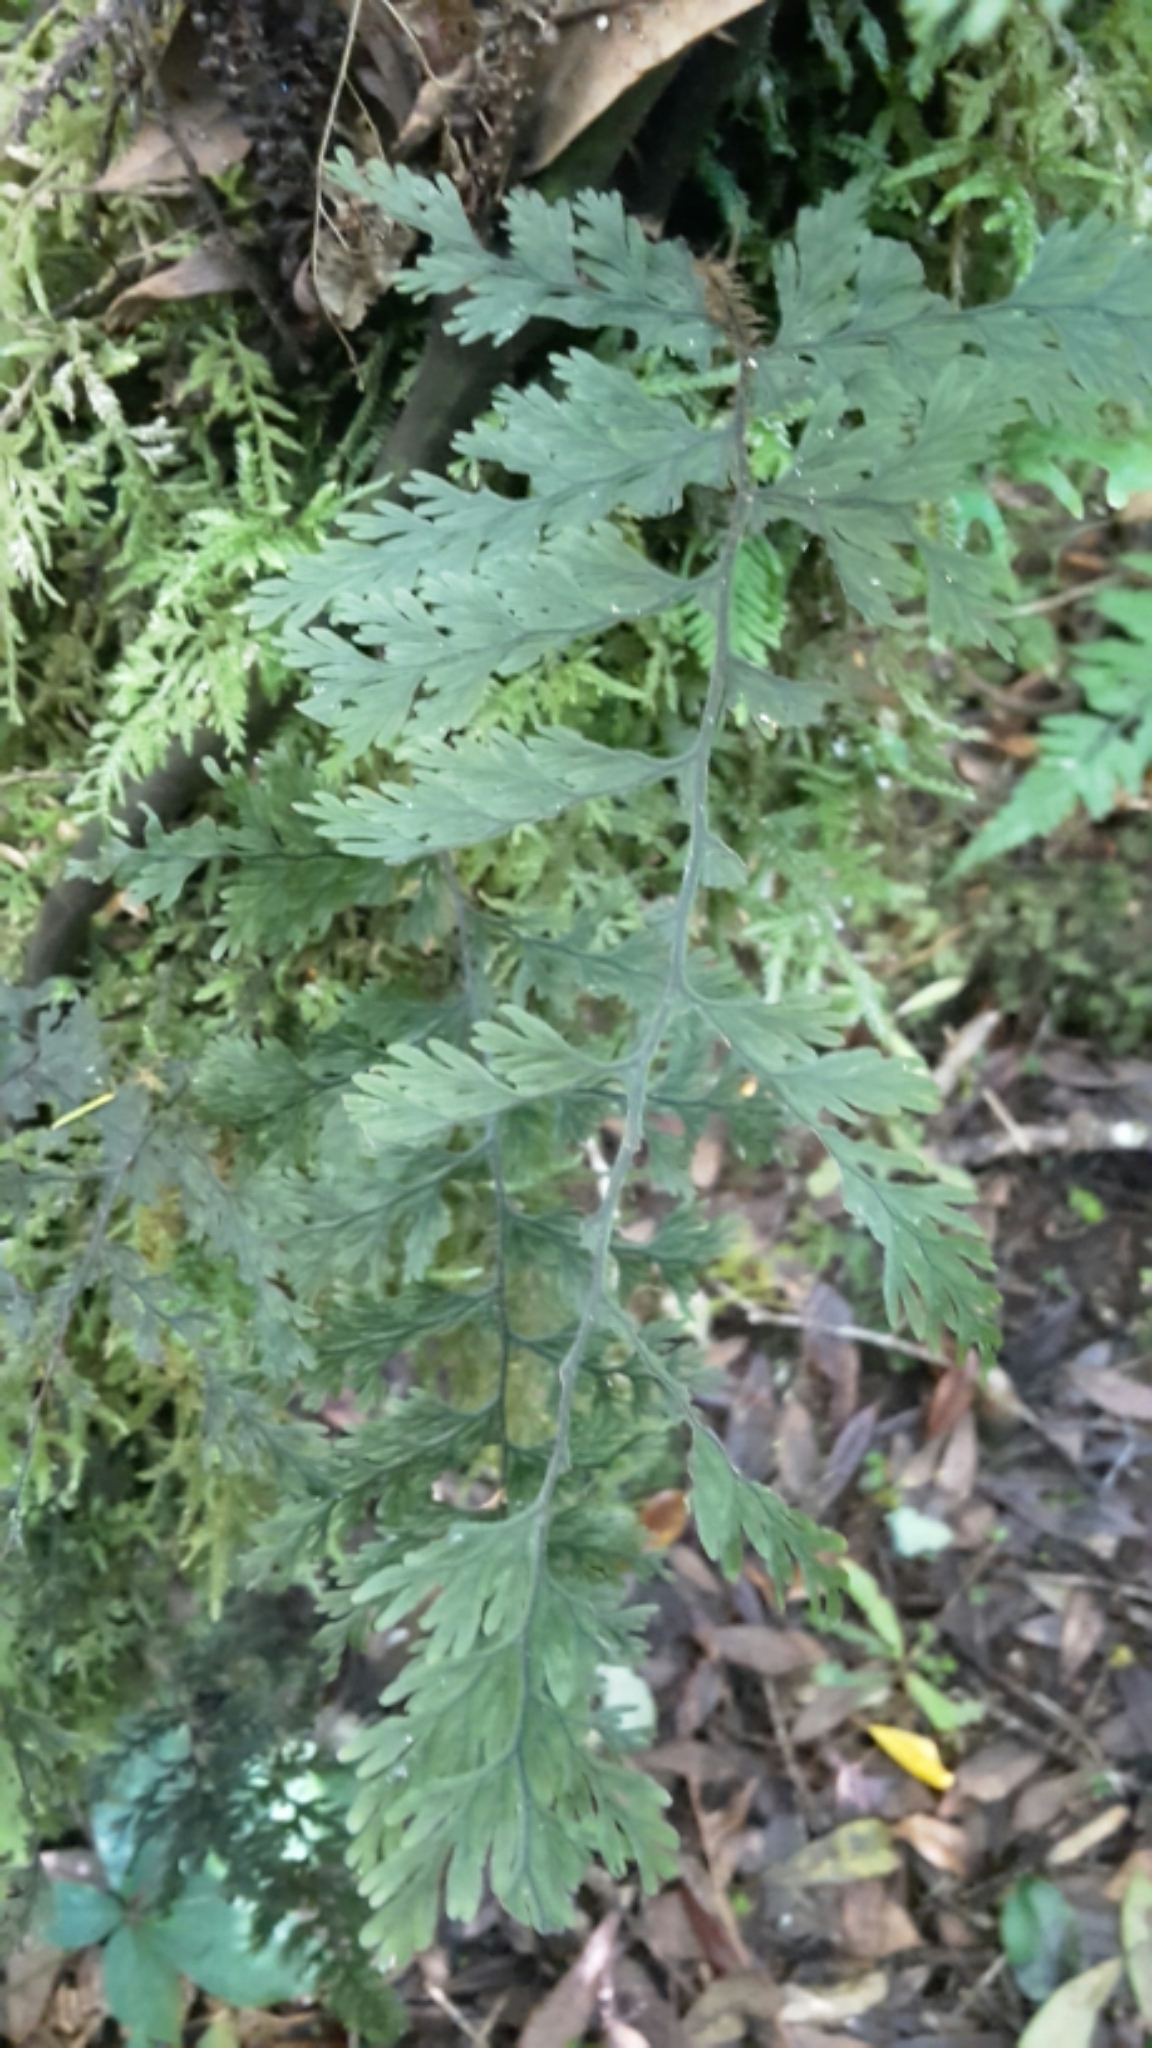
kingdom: Plantae
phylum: Tracheophyta
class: Polypodiopsida
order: Hymenophyllales
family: Hymenophyllaceae
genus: Hymenophyllum
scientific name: Hymenophyllum scabrum
